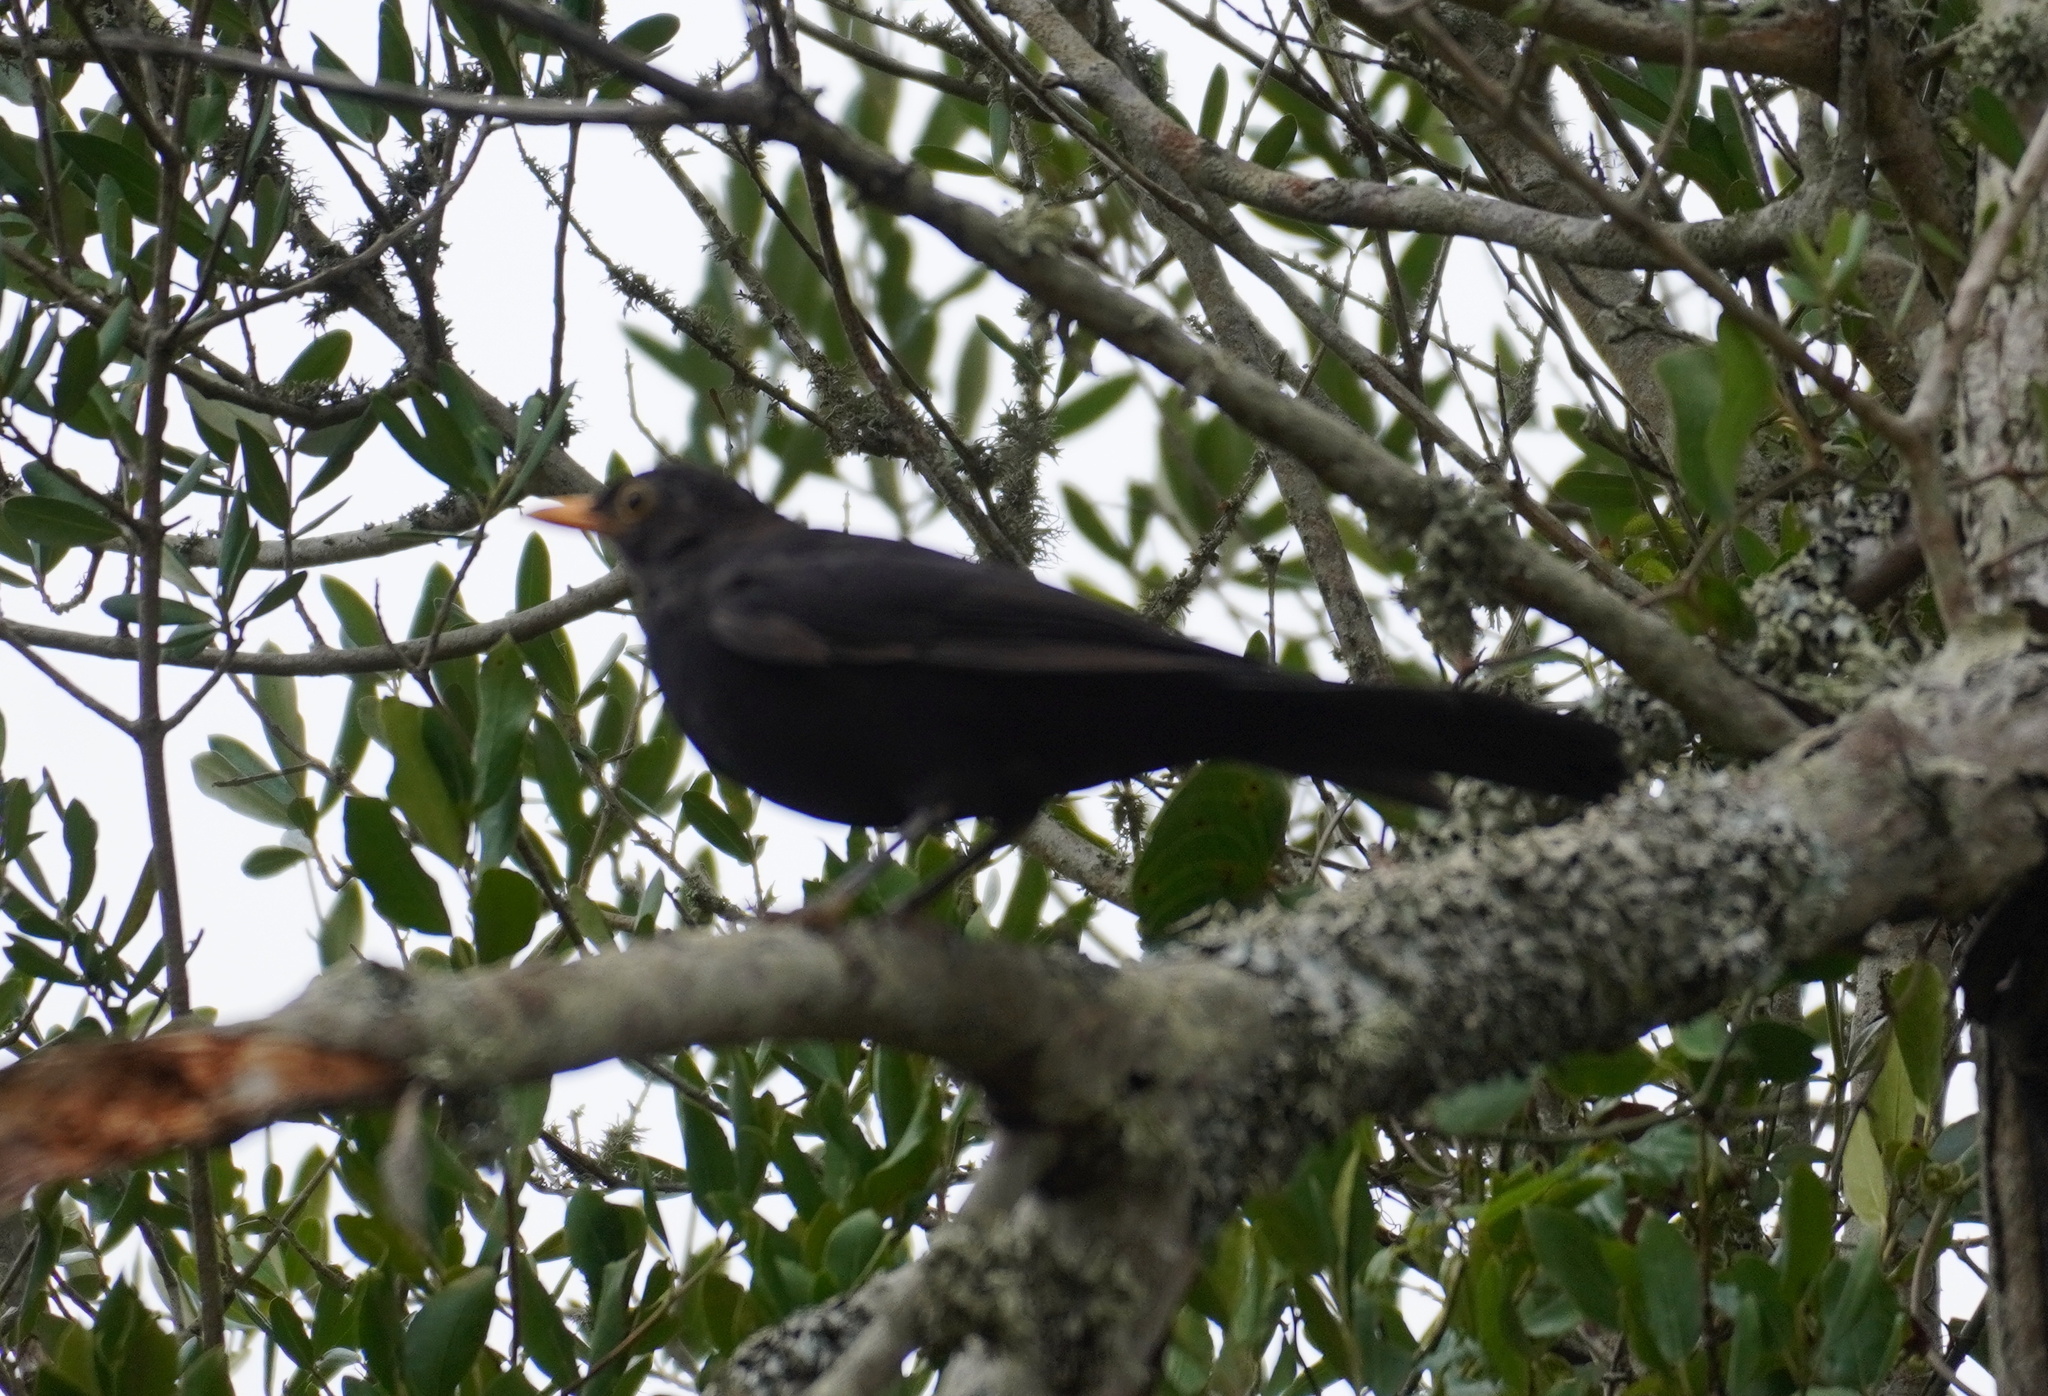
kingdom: Animalia
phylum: Chordata
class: Aves
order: Passeriformes
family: Turdidae
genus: Turdus
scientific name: Turdus merula
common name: Common blackbird
